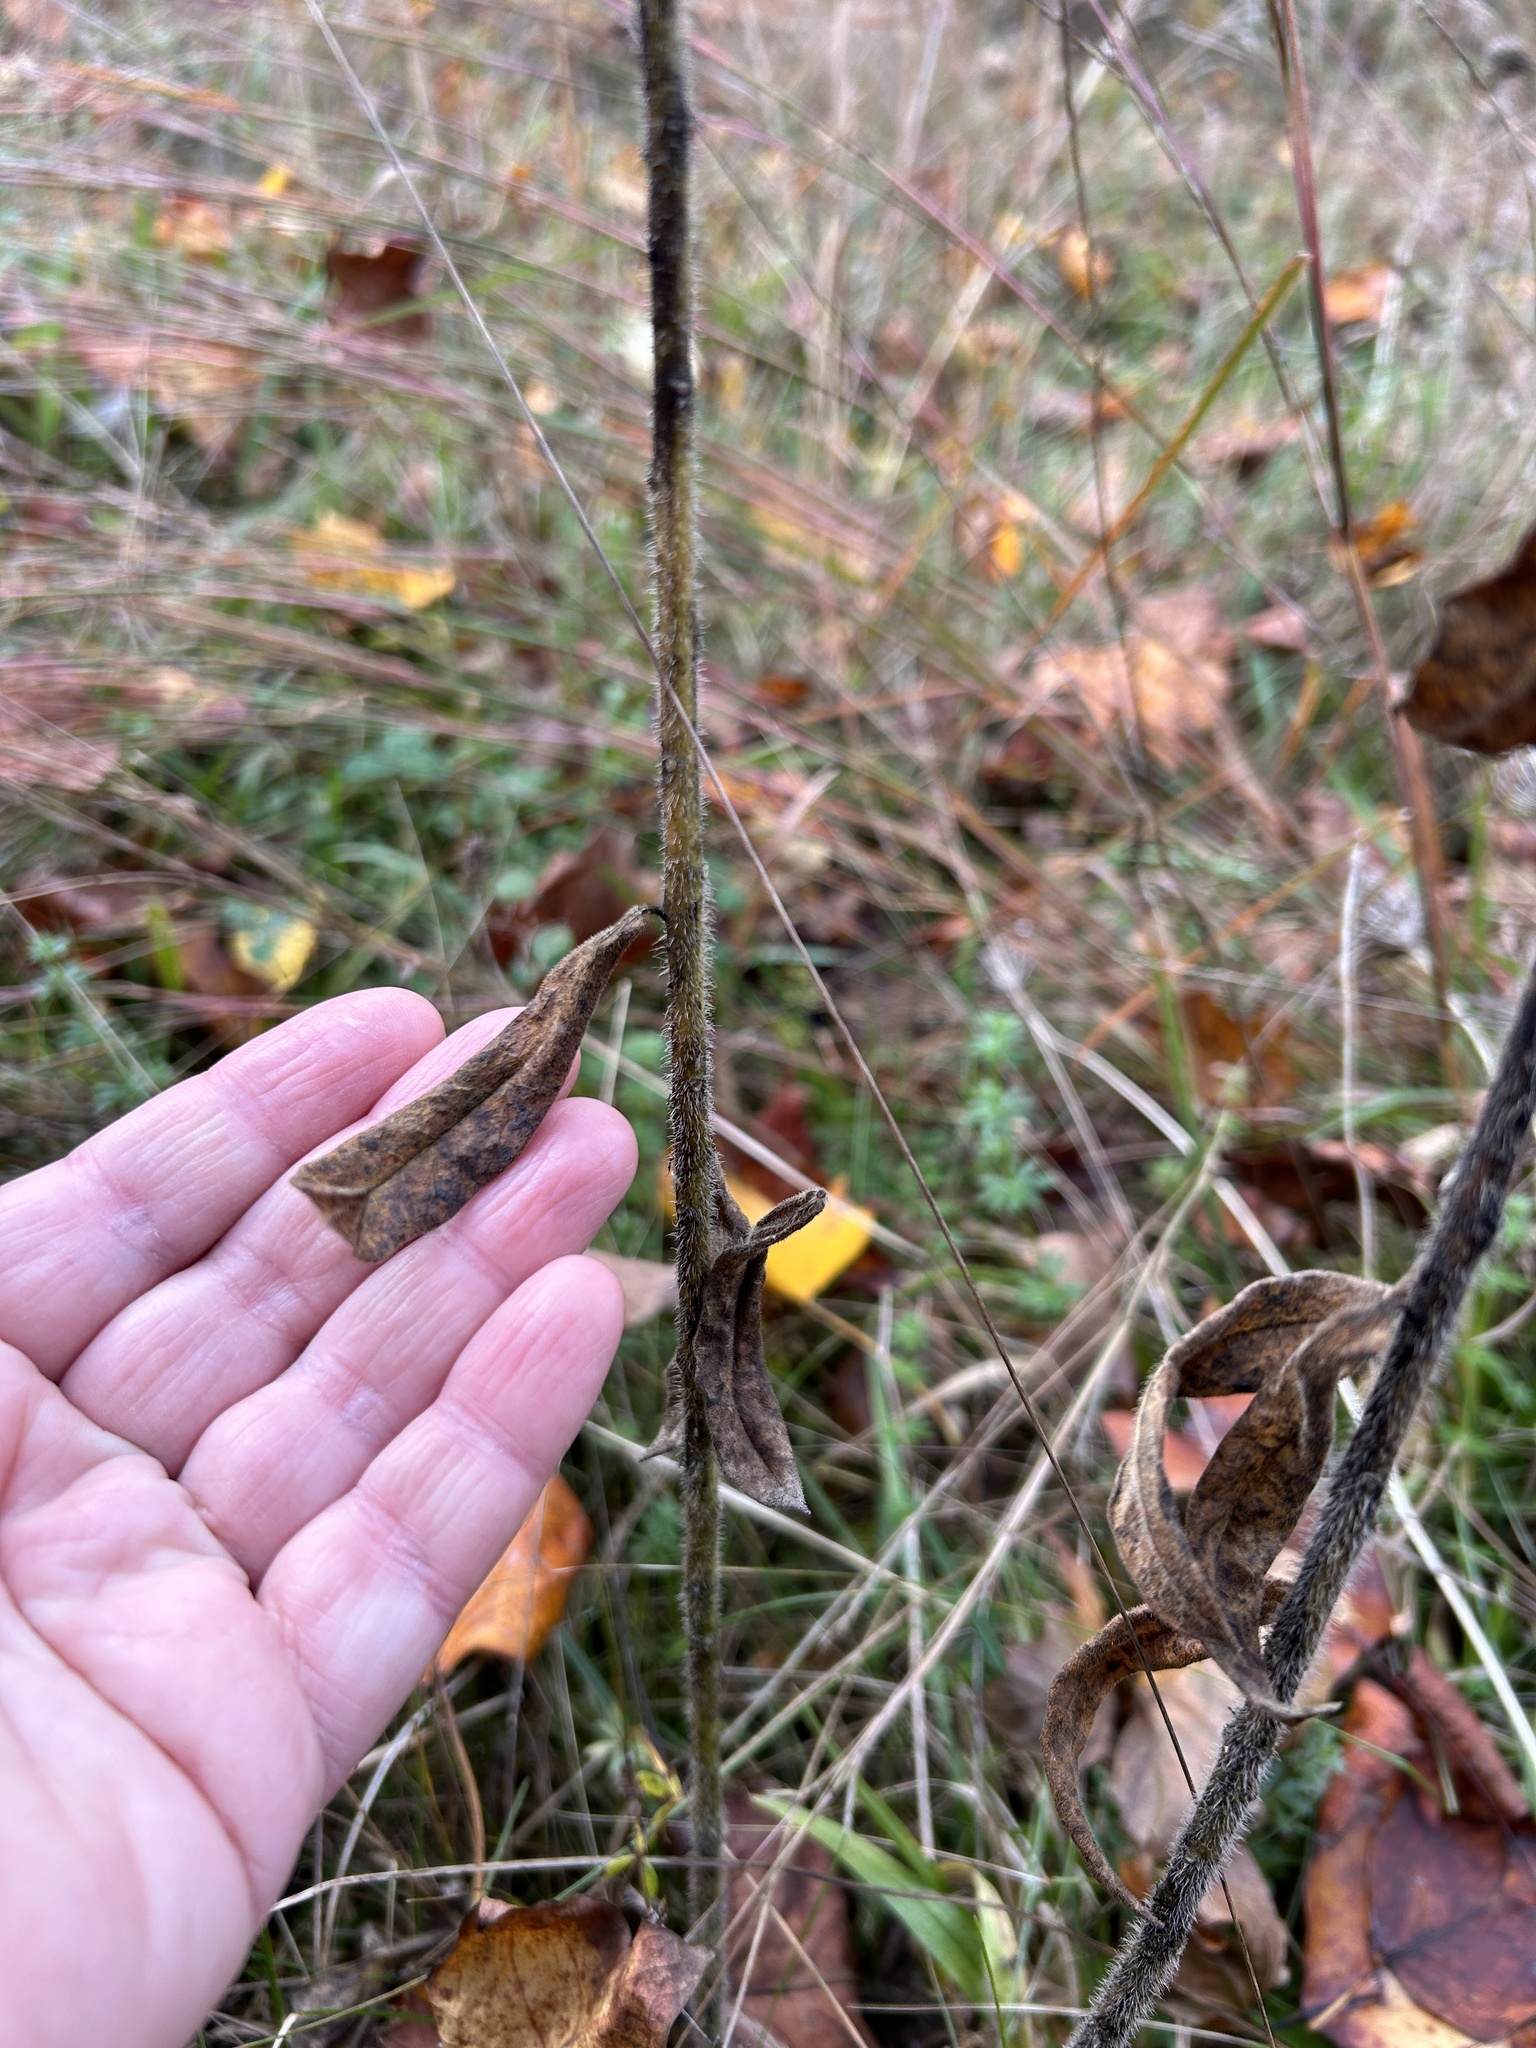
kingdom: Plantae
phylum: Tracheophyta
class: Magnoliopsida
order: Gentianales
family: Apocynaceae
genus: Asclepias
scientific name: Asclepias tuberosa
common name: Butterfly milkweed
